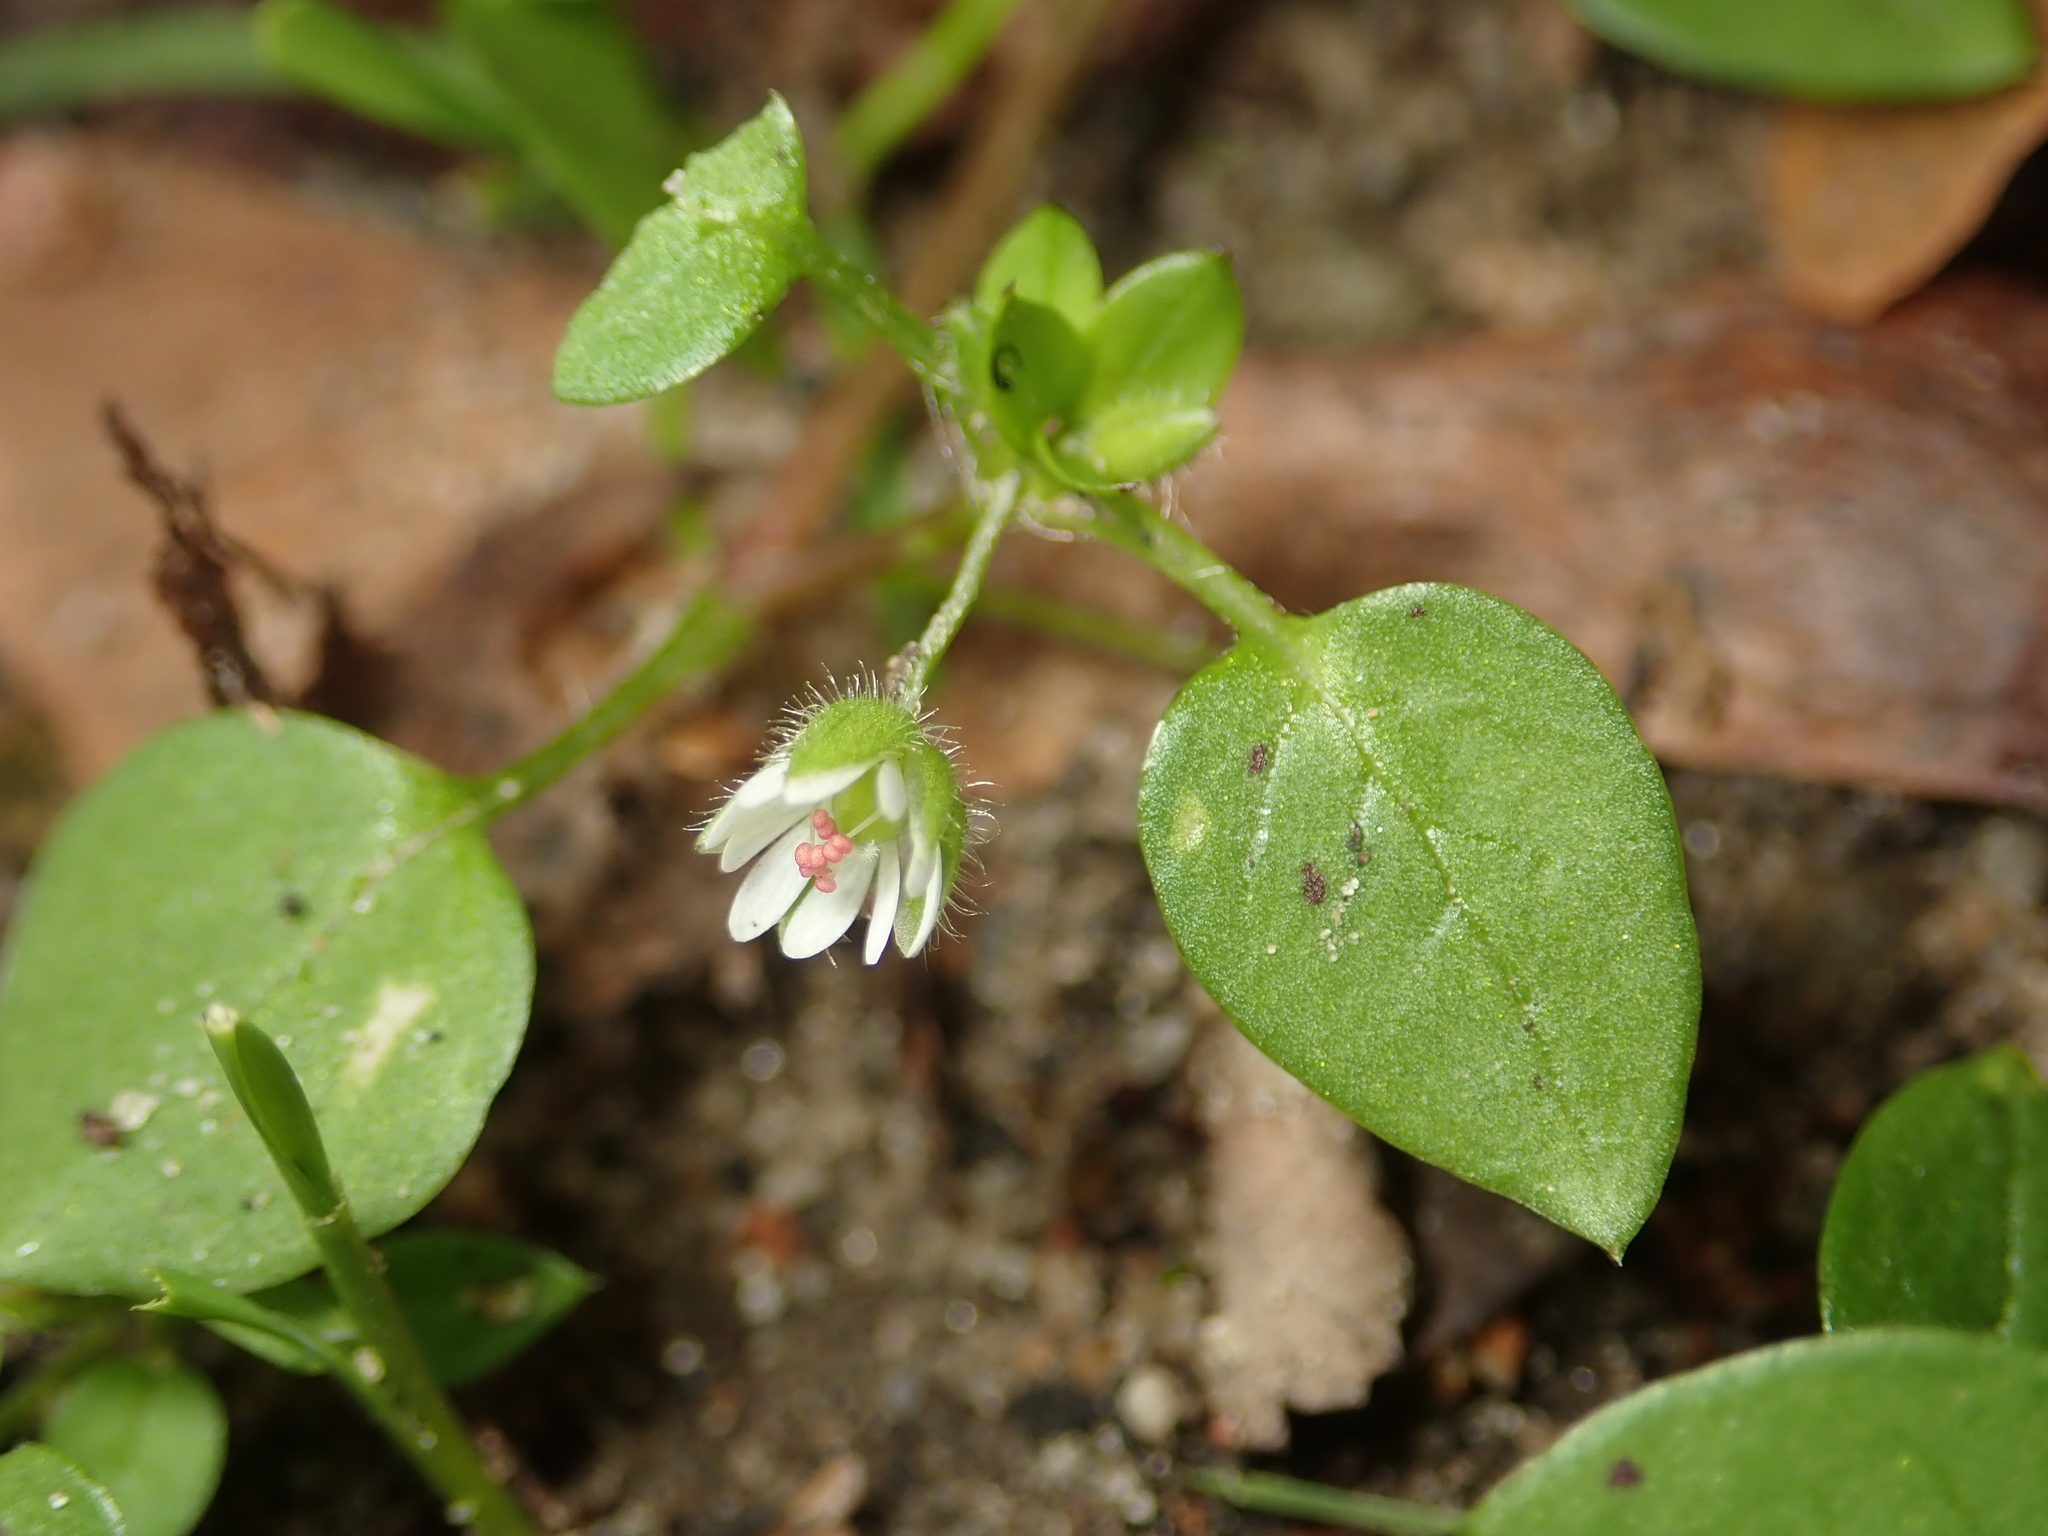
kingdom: Plantae
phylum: Tracheophyta
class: Magnoliopsida
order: Caryophyllales
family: Caryophyllaceae
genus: Stellaria
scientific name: Stellaria media
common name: Common chickweed
